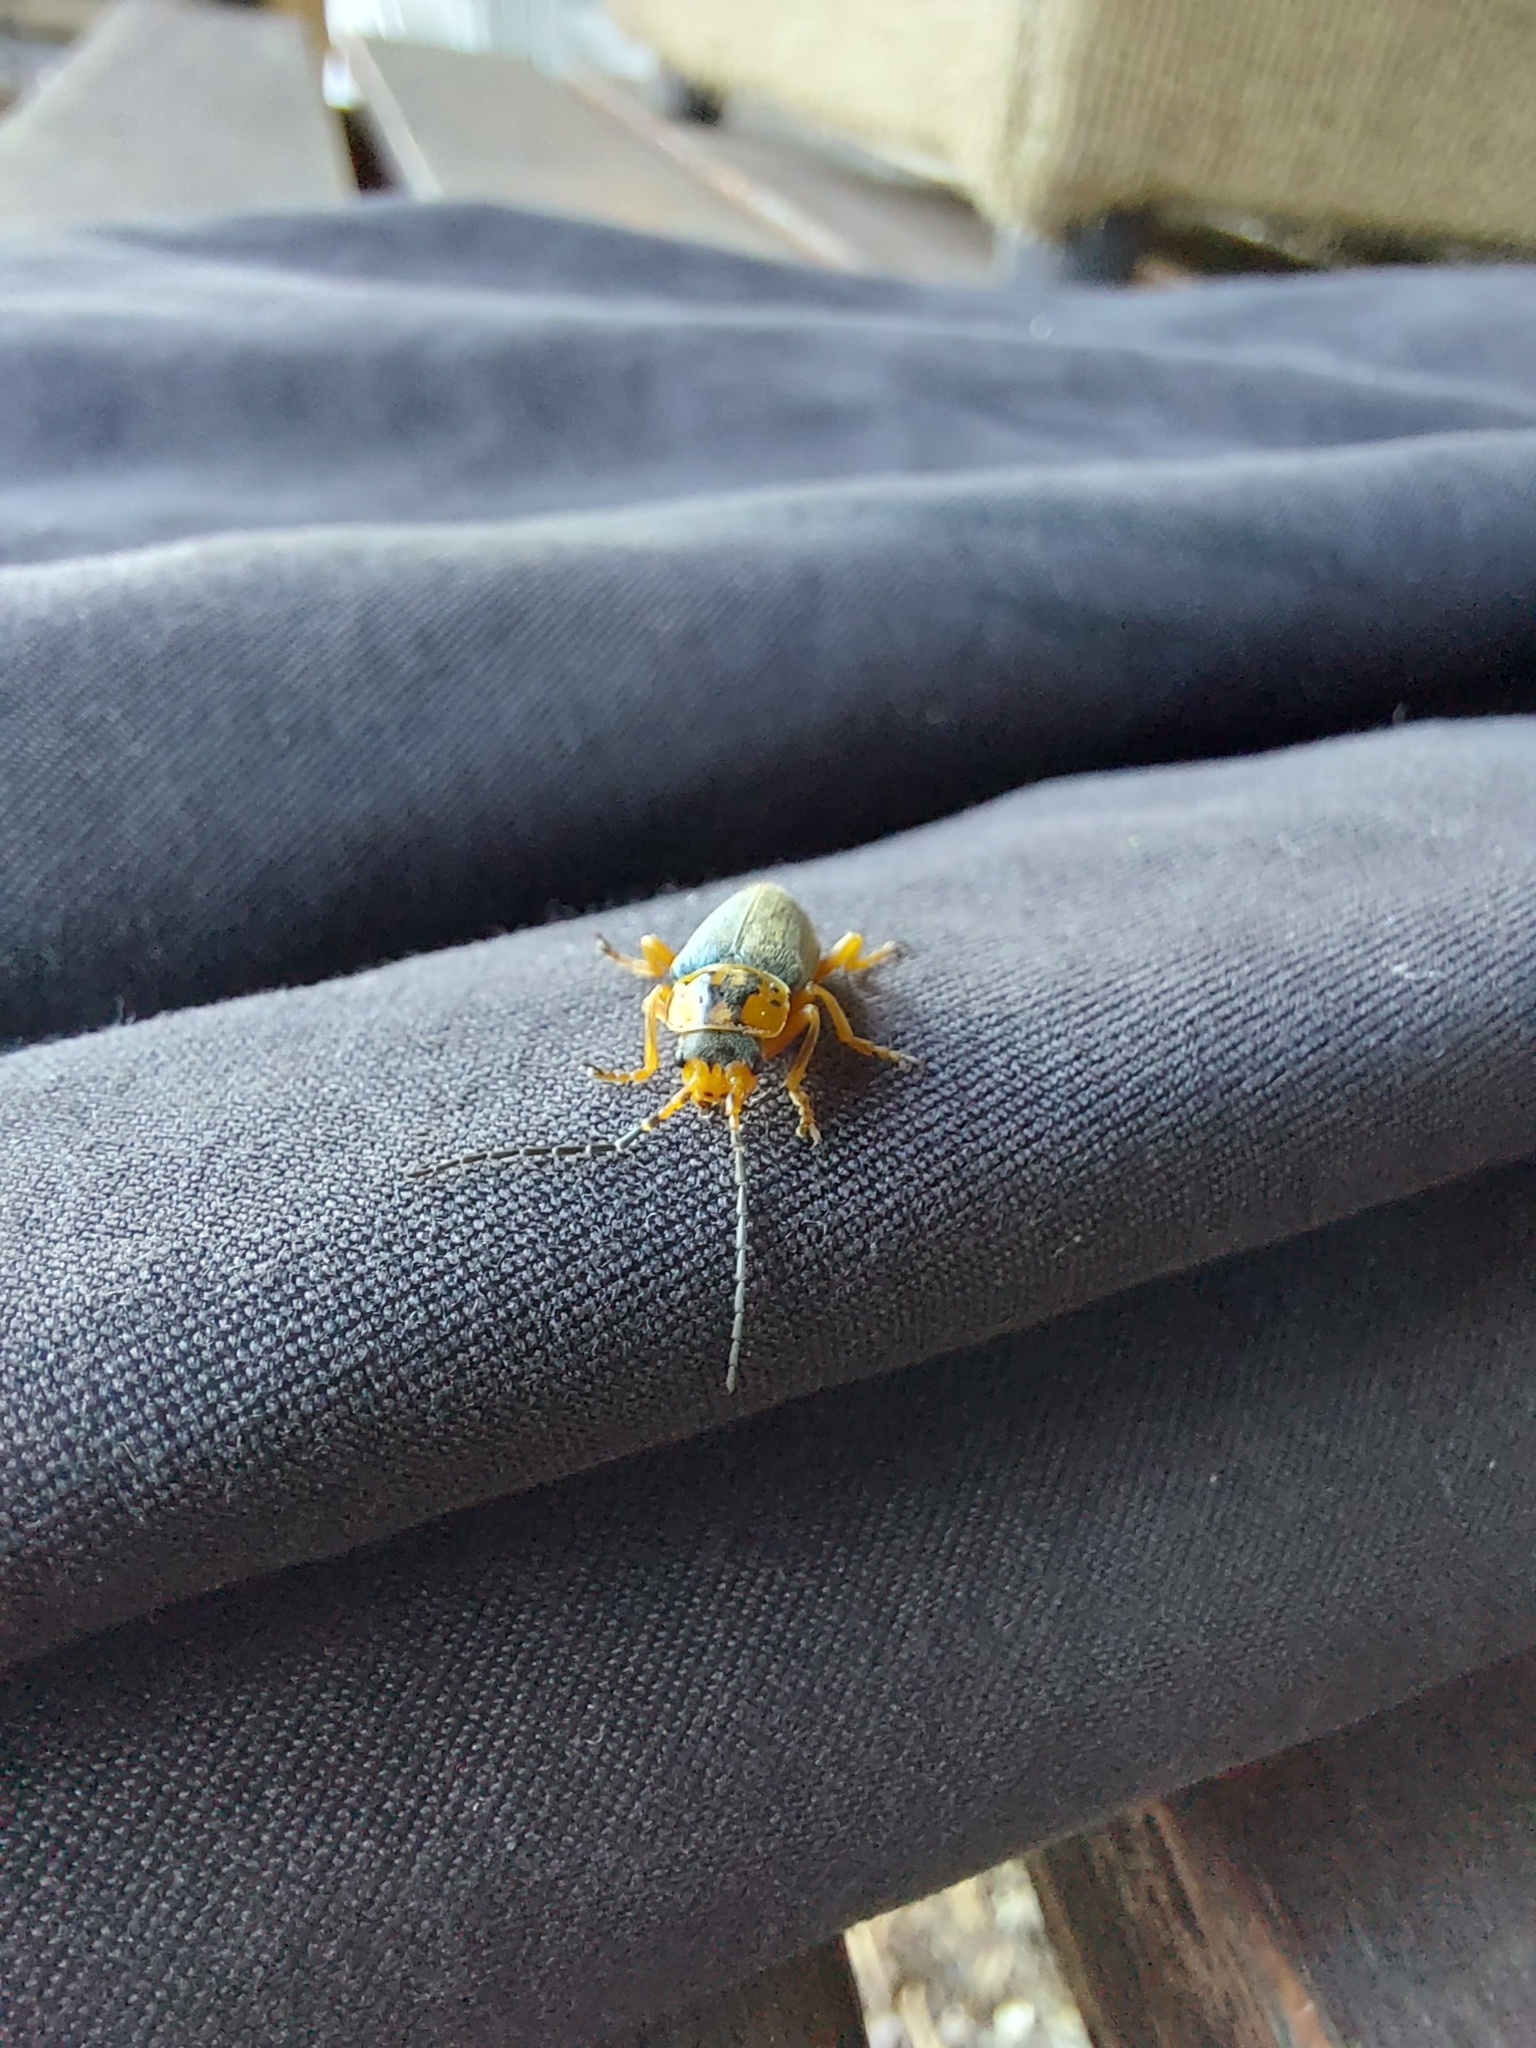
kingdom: Animalia
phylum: Arthropoda
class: Insecta
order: Coleoptera
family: Cantharidae
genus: Afronycha
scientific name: Afronycha
